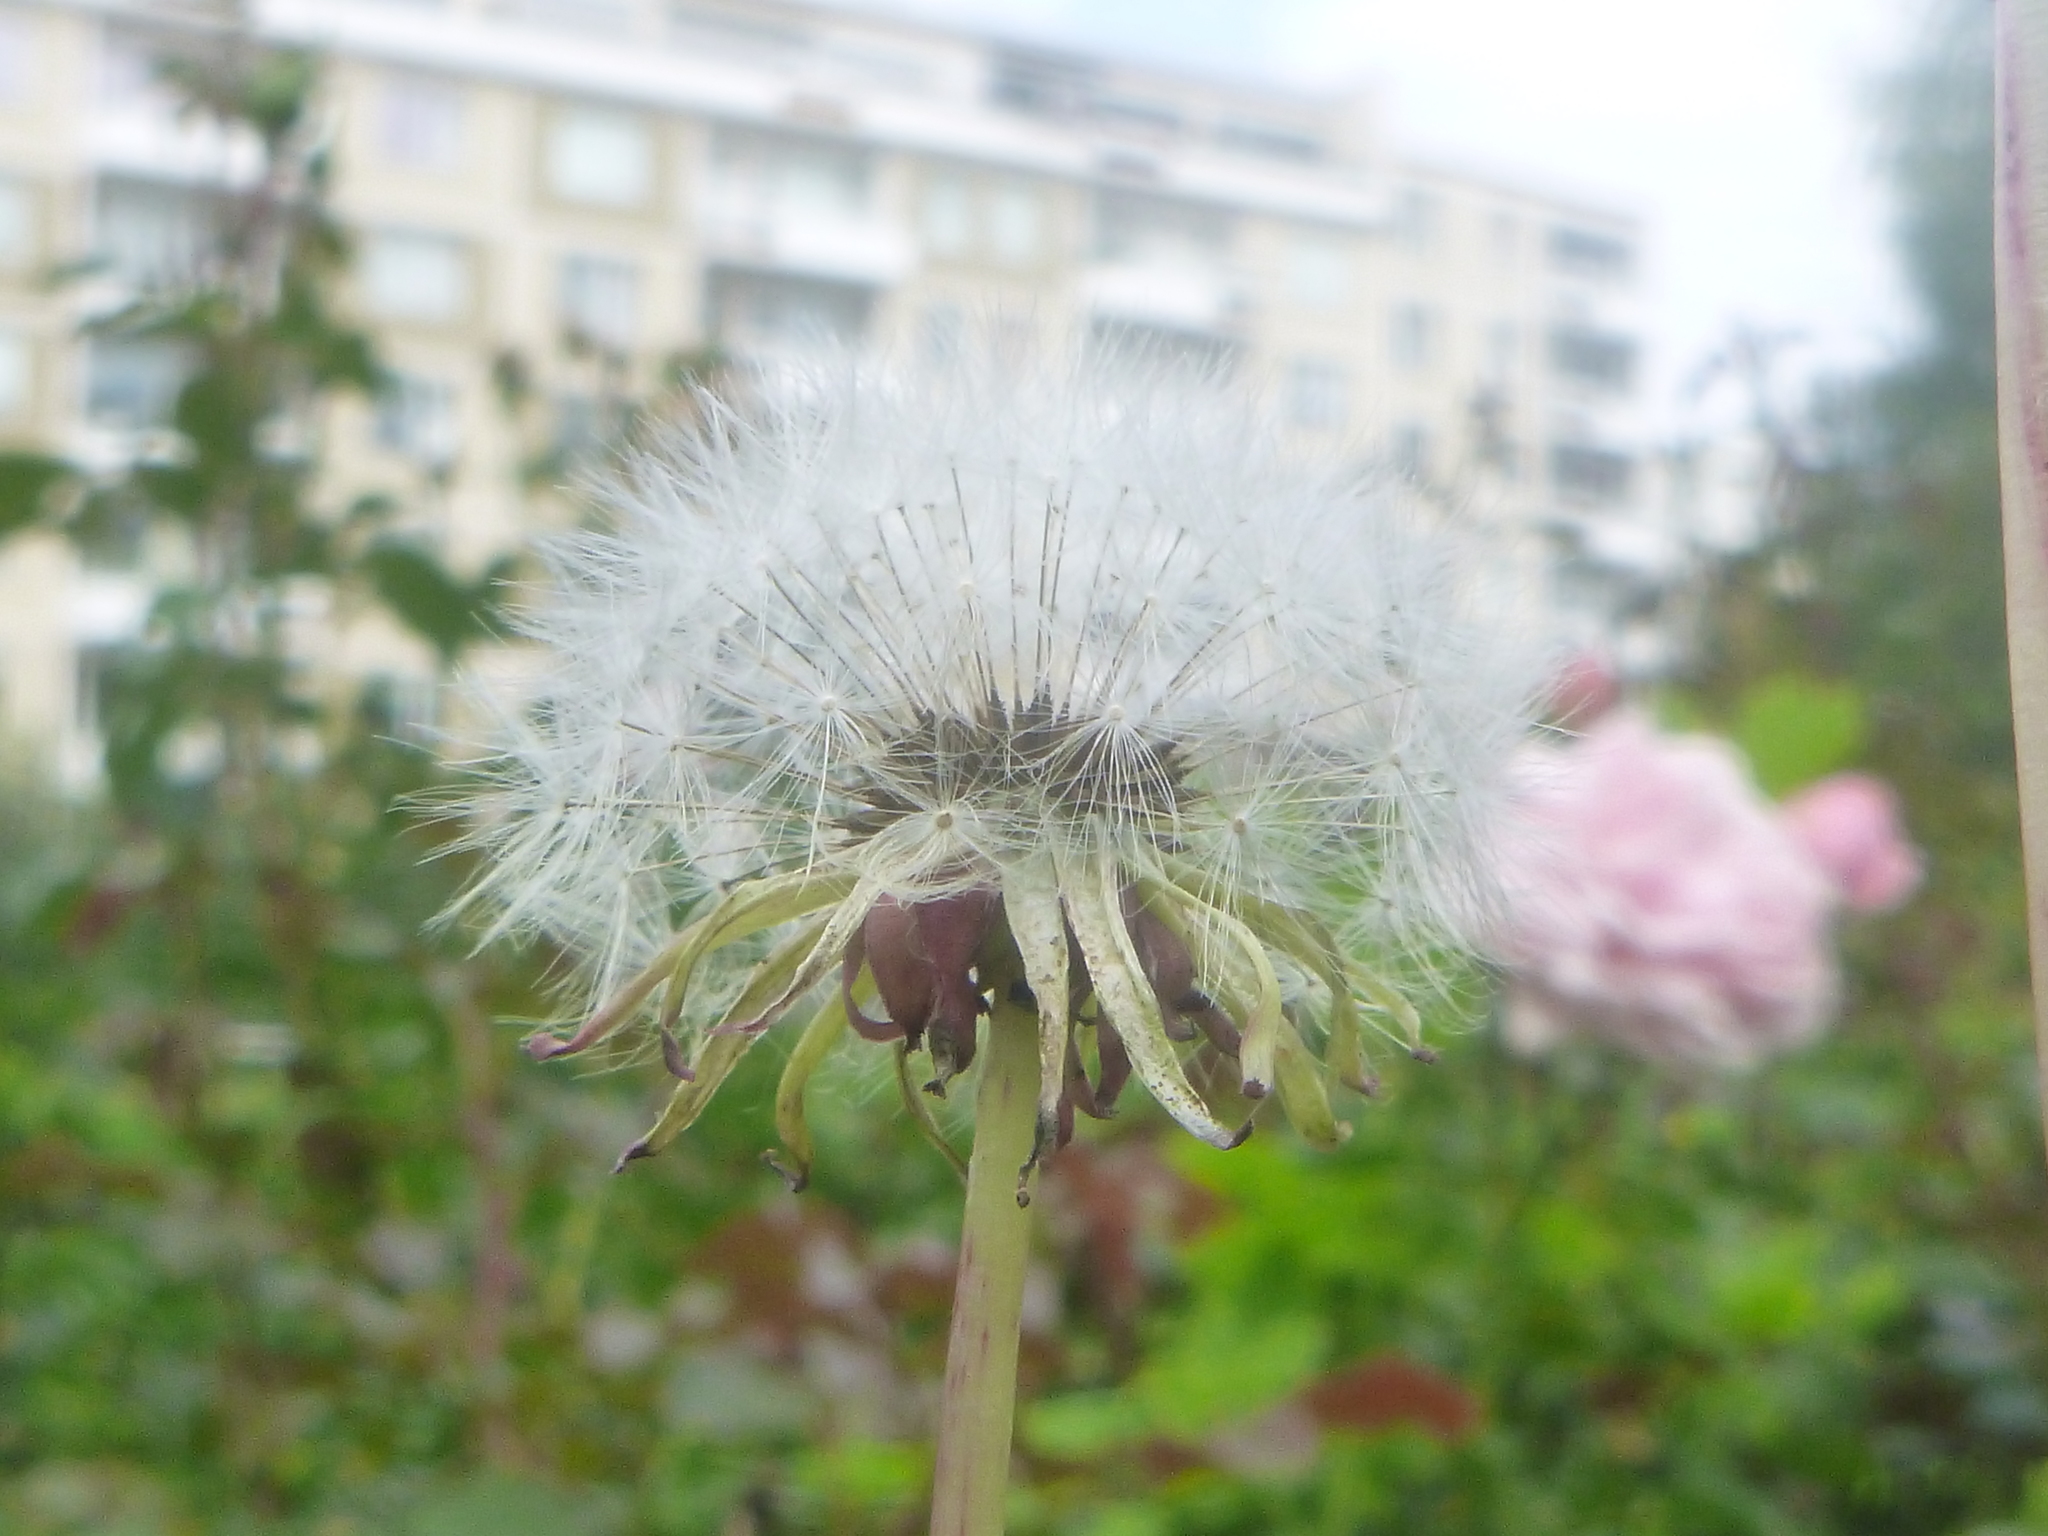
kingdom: Plantae
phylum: Tracheophyta
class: Magnoliopsida
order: Asterales
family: Asteraceae
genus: Taraxacum
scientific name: Taraxacum officinale
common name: Common dandelion
